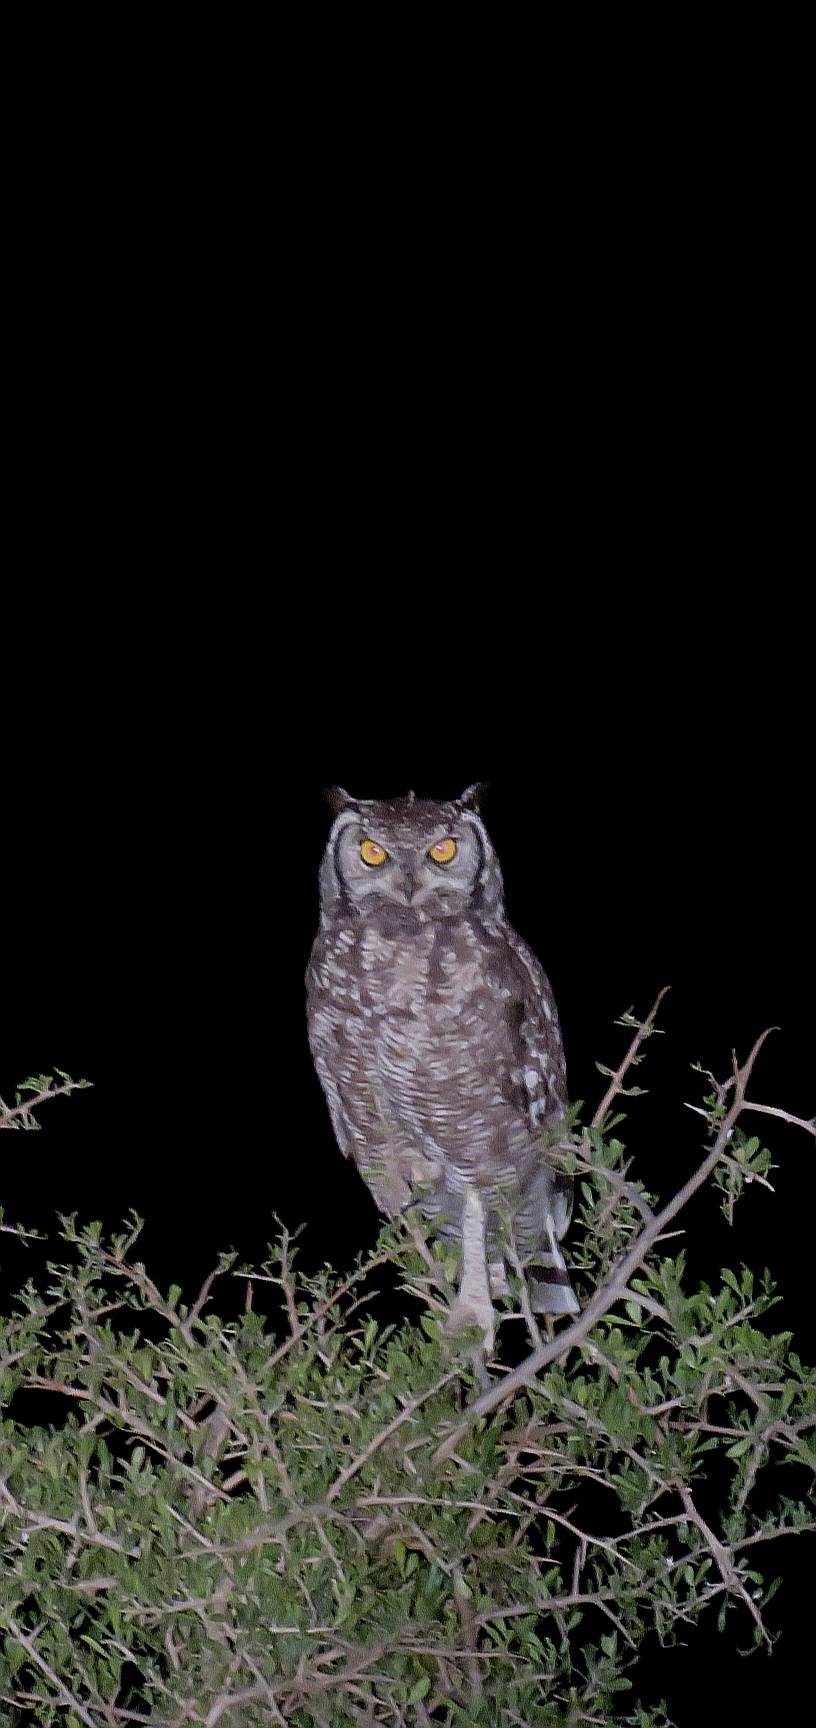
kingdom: Animalia
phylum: Chordata
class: Aves
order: Strigiformes
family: Strigidae
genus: Bubo
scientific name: Bubo africanus
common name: Spotted eagle-owl
